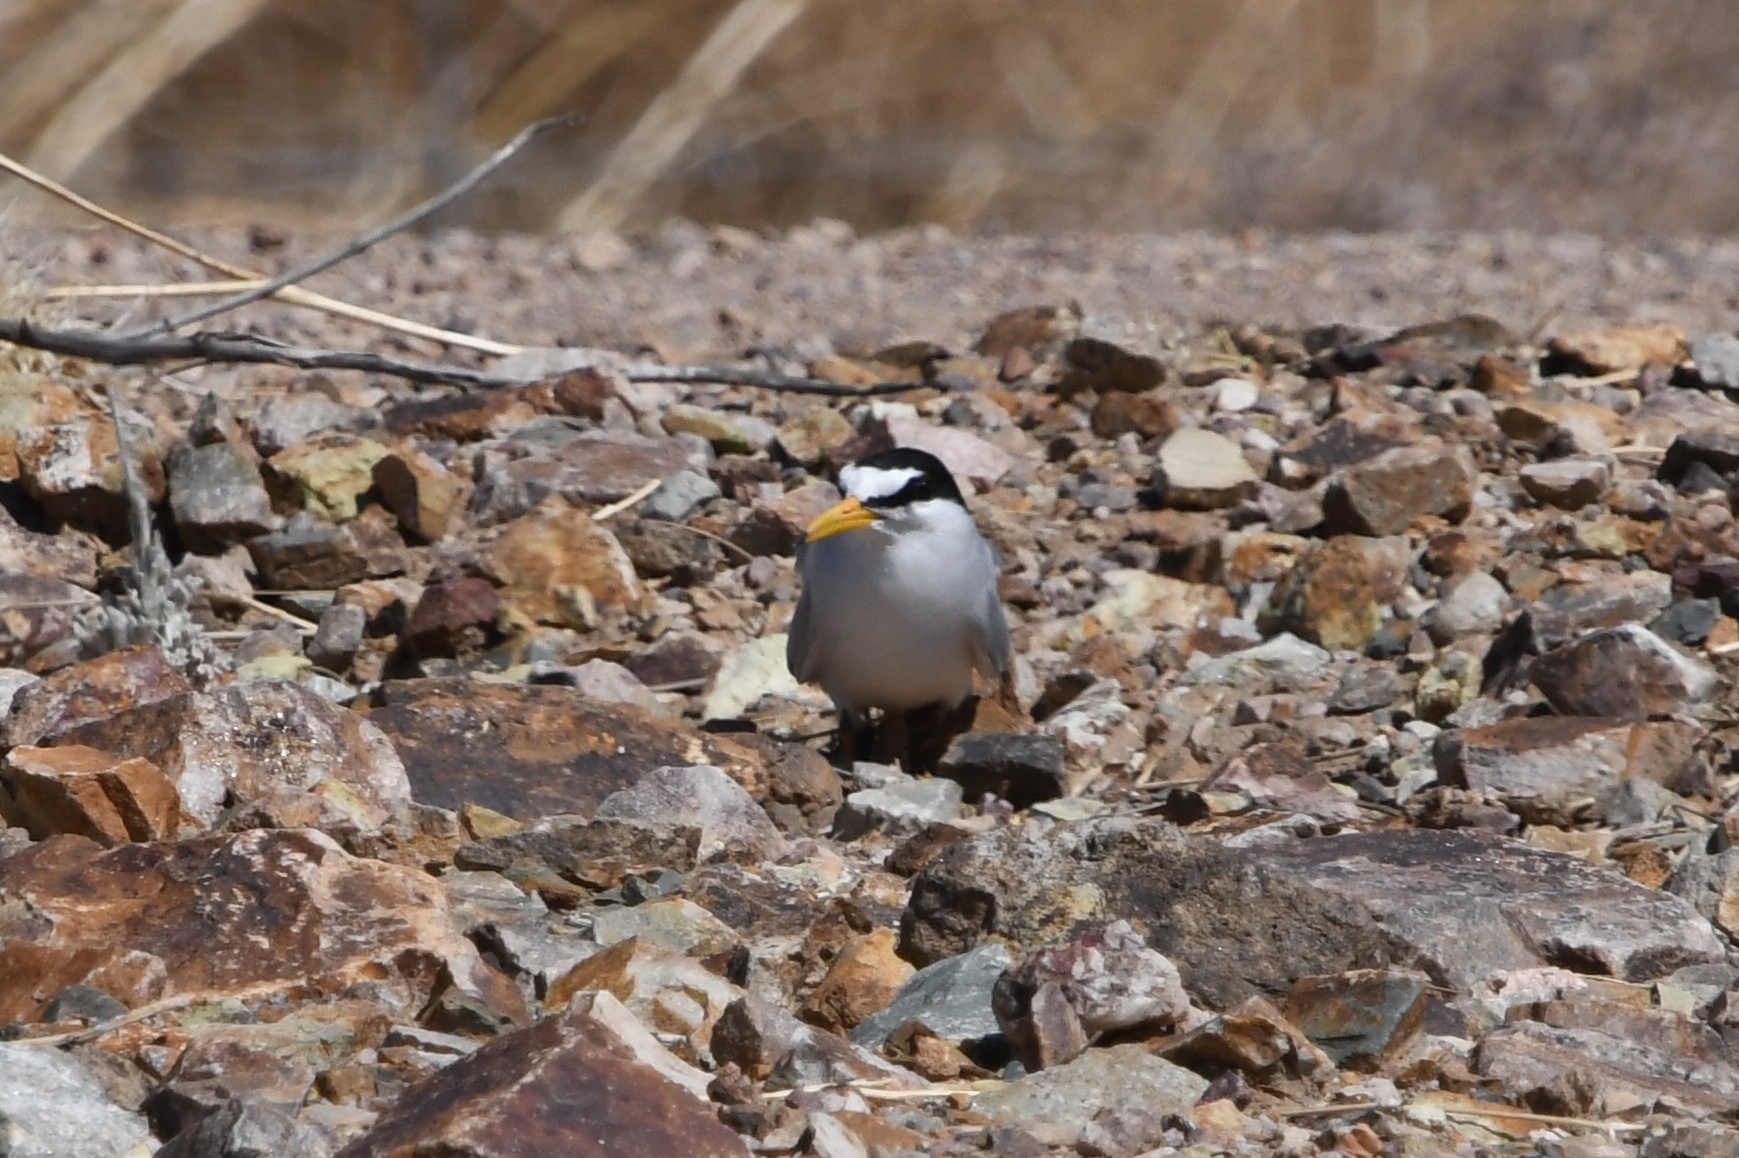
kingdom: Animalia
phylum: Chordata
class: Aves
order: Charadriiformes
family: Laridae
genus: Sternula
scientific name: Sternula antillarum
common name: Least tern
